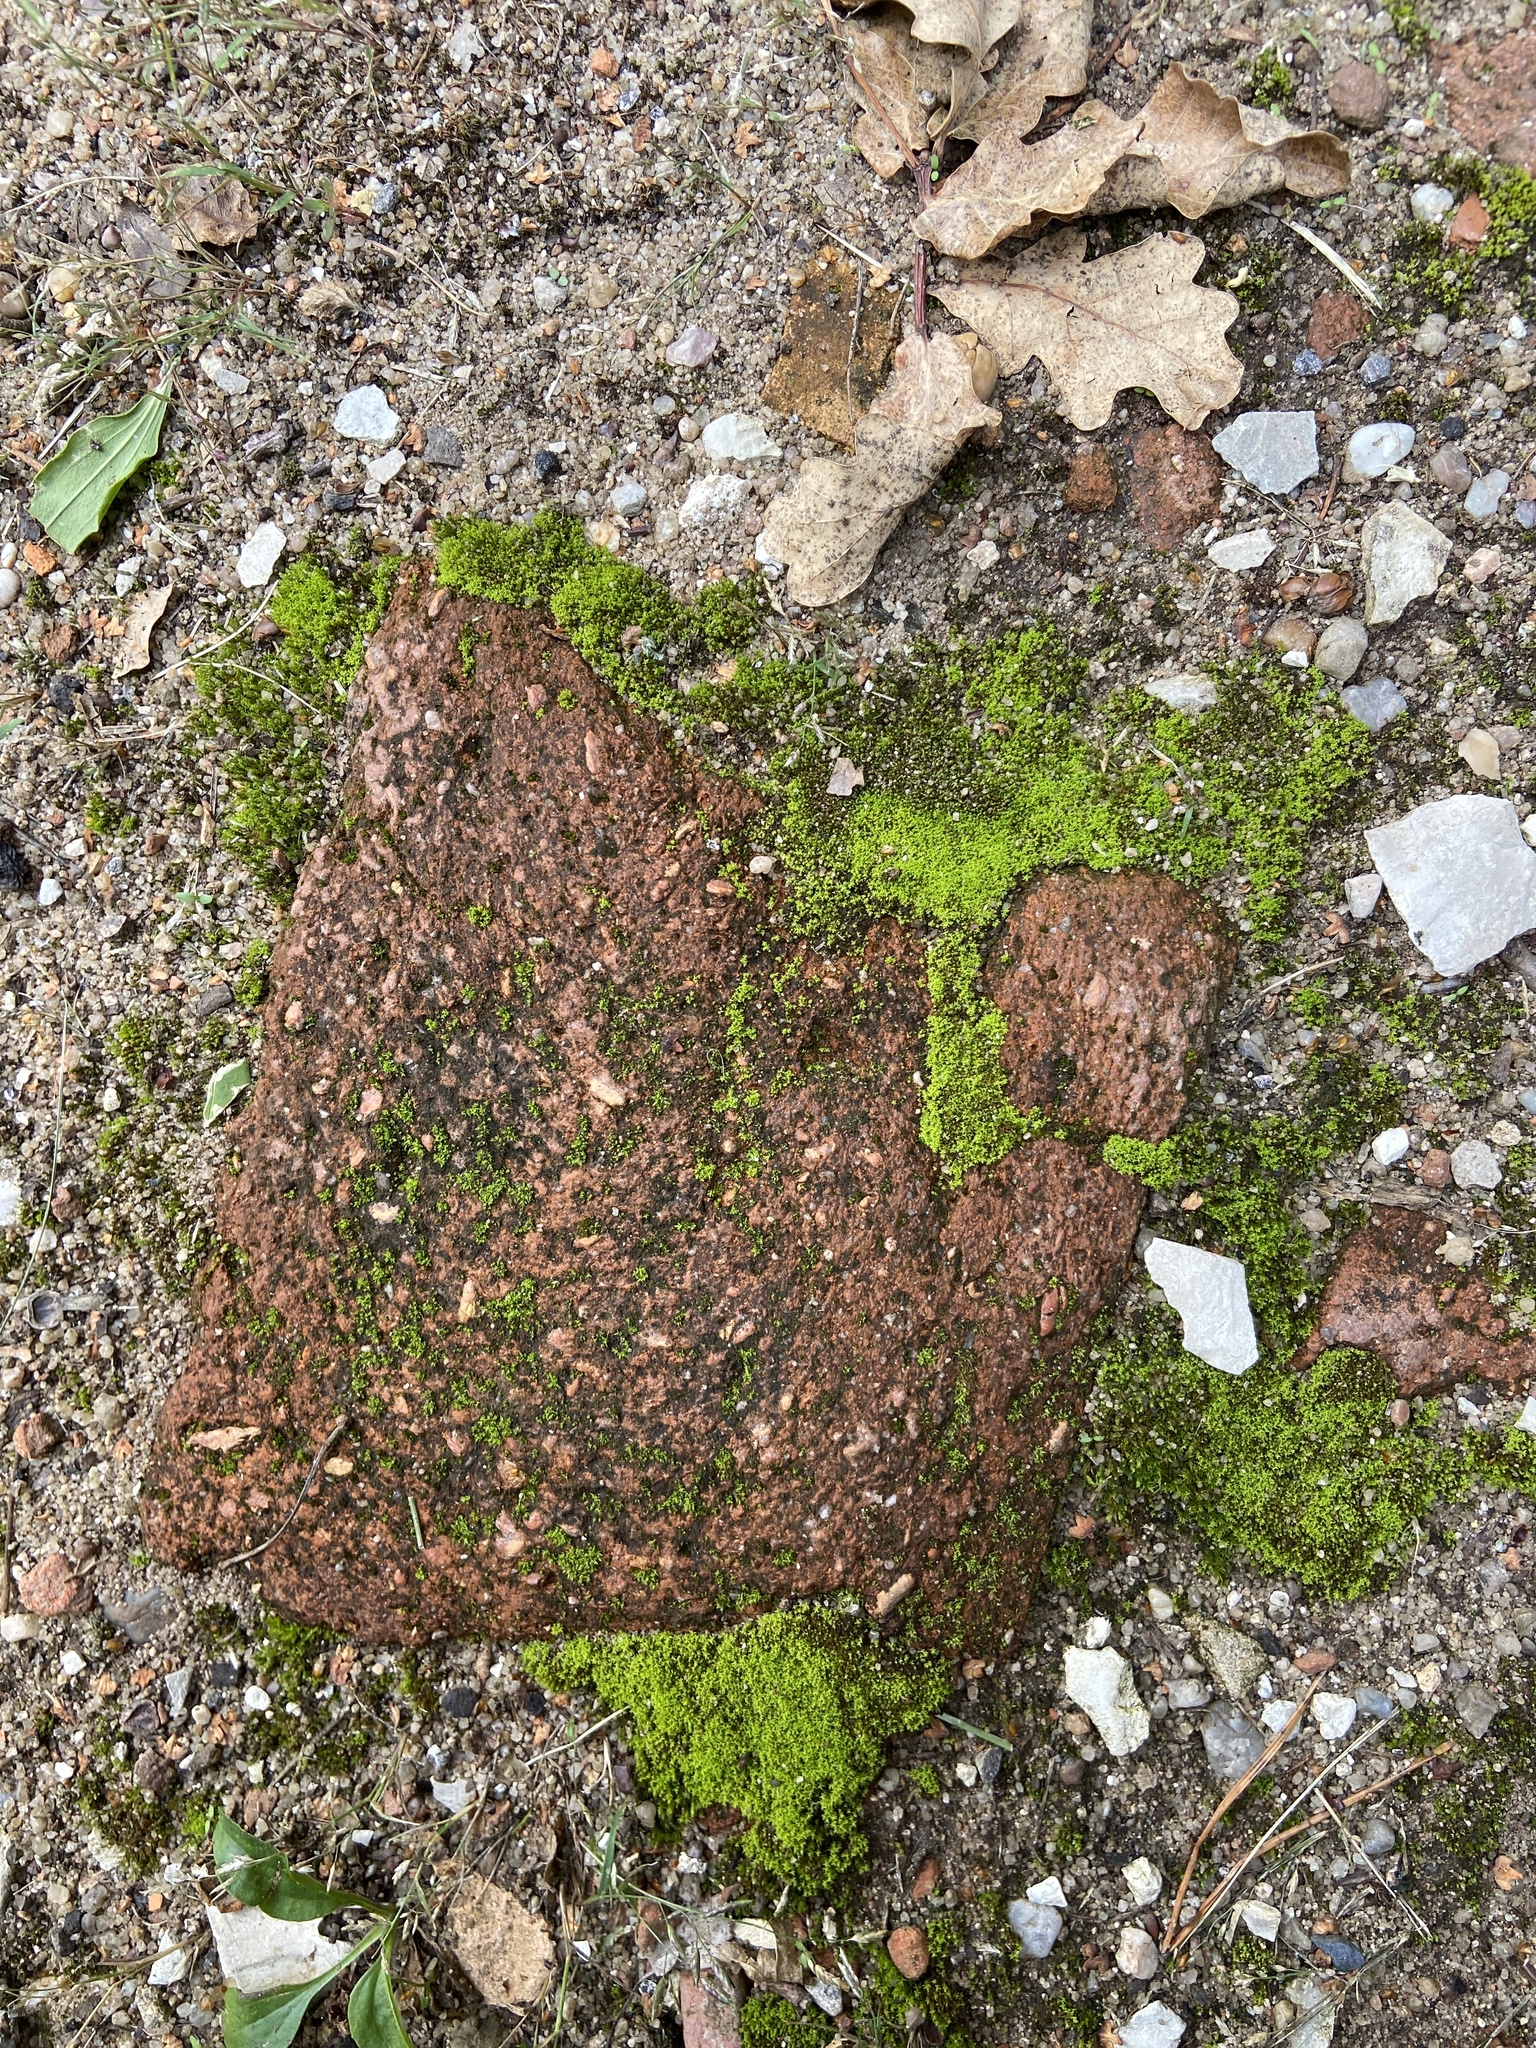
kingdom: Plantae
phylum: Bryophyta
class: Bryopsida
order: Pottiales
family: Pottiaceae
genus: Streblotrichum
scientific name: Streblotrichum convolutum
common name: Lesser bird's-claw beard-moss
